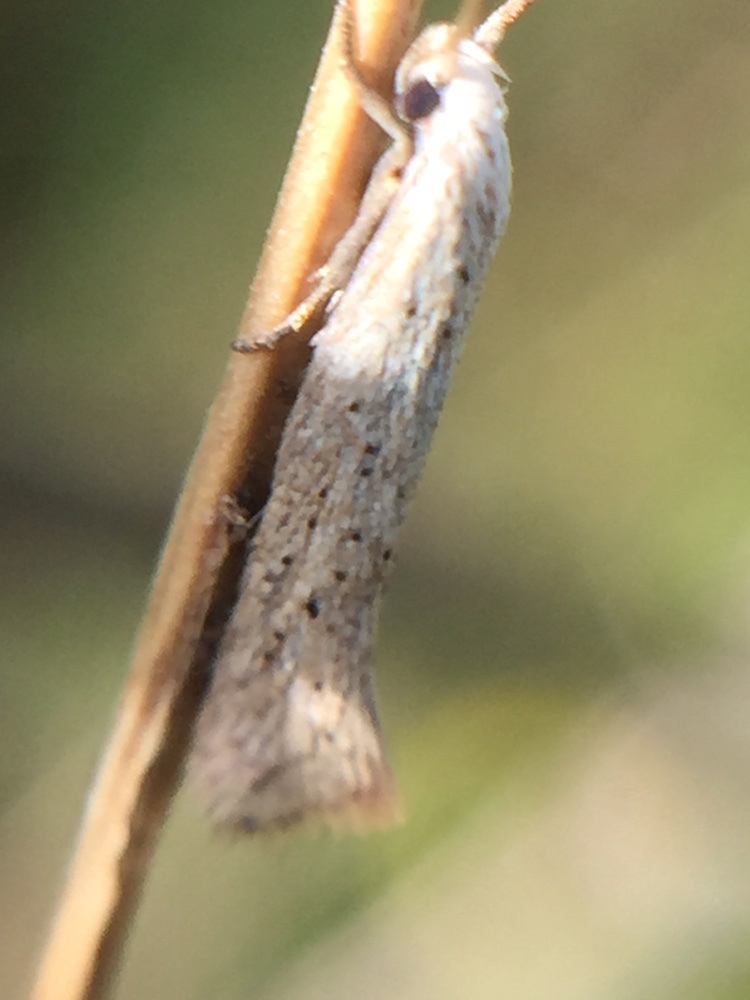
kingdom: Animalia
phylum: Arthropoda
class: Insecta
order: Lepidoptera
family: Elachistidae
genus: Elachista
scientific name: Elachista gerasmia
